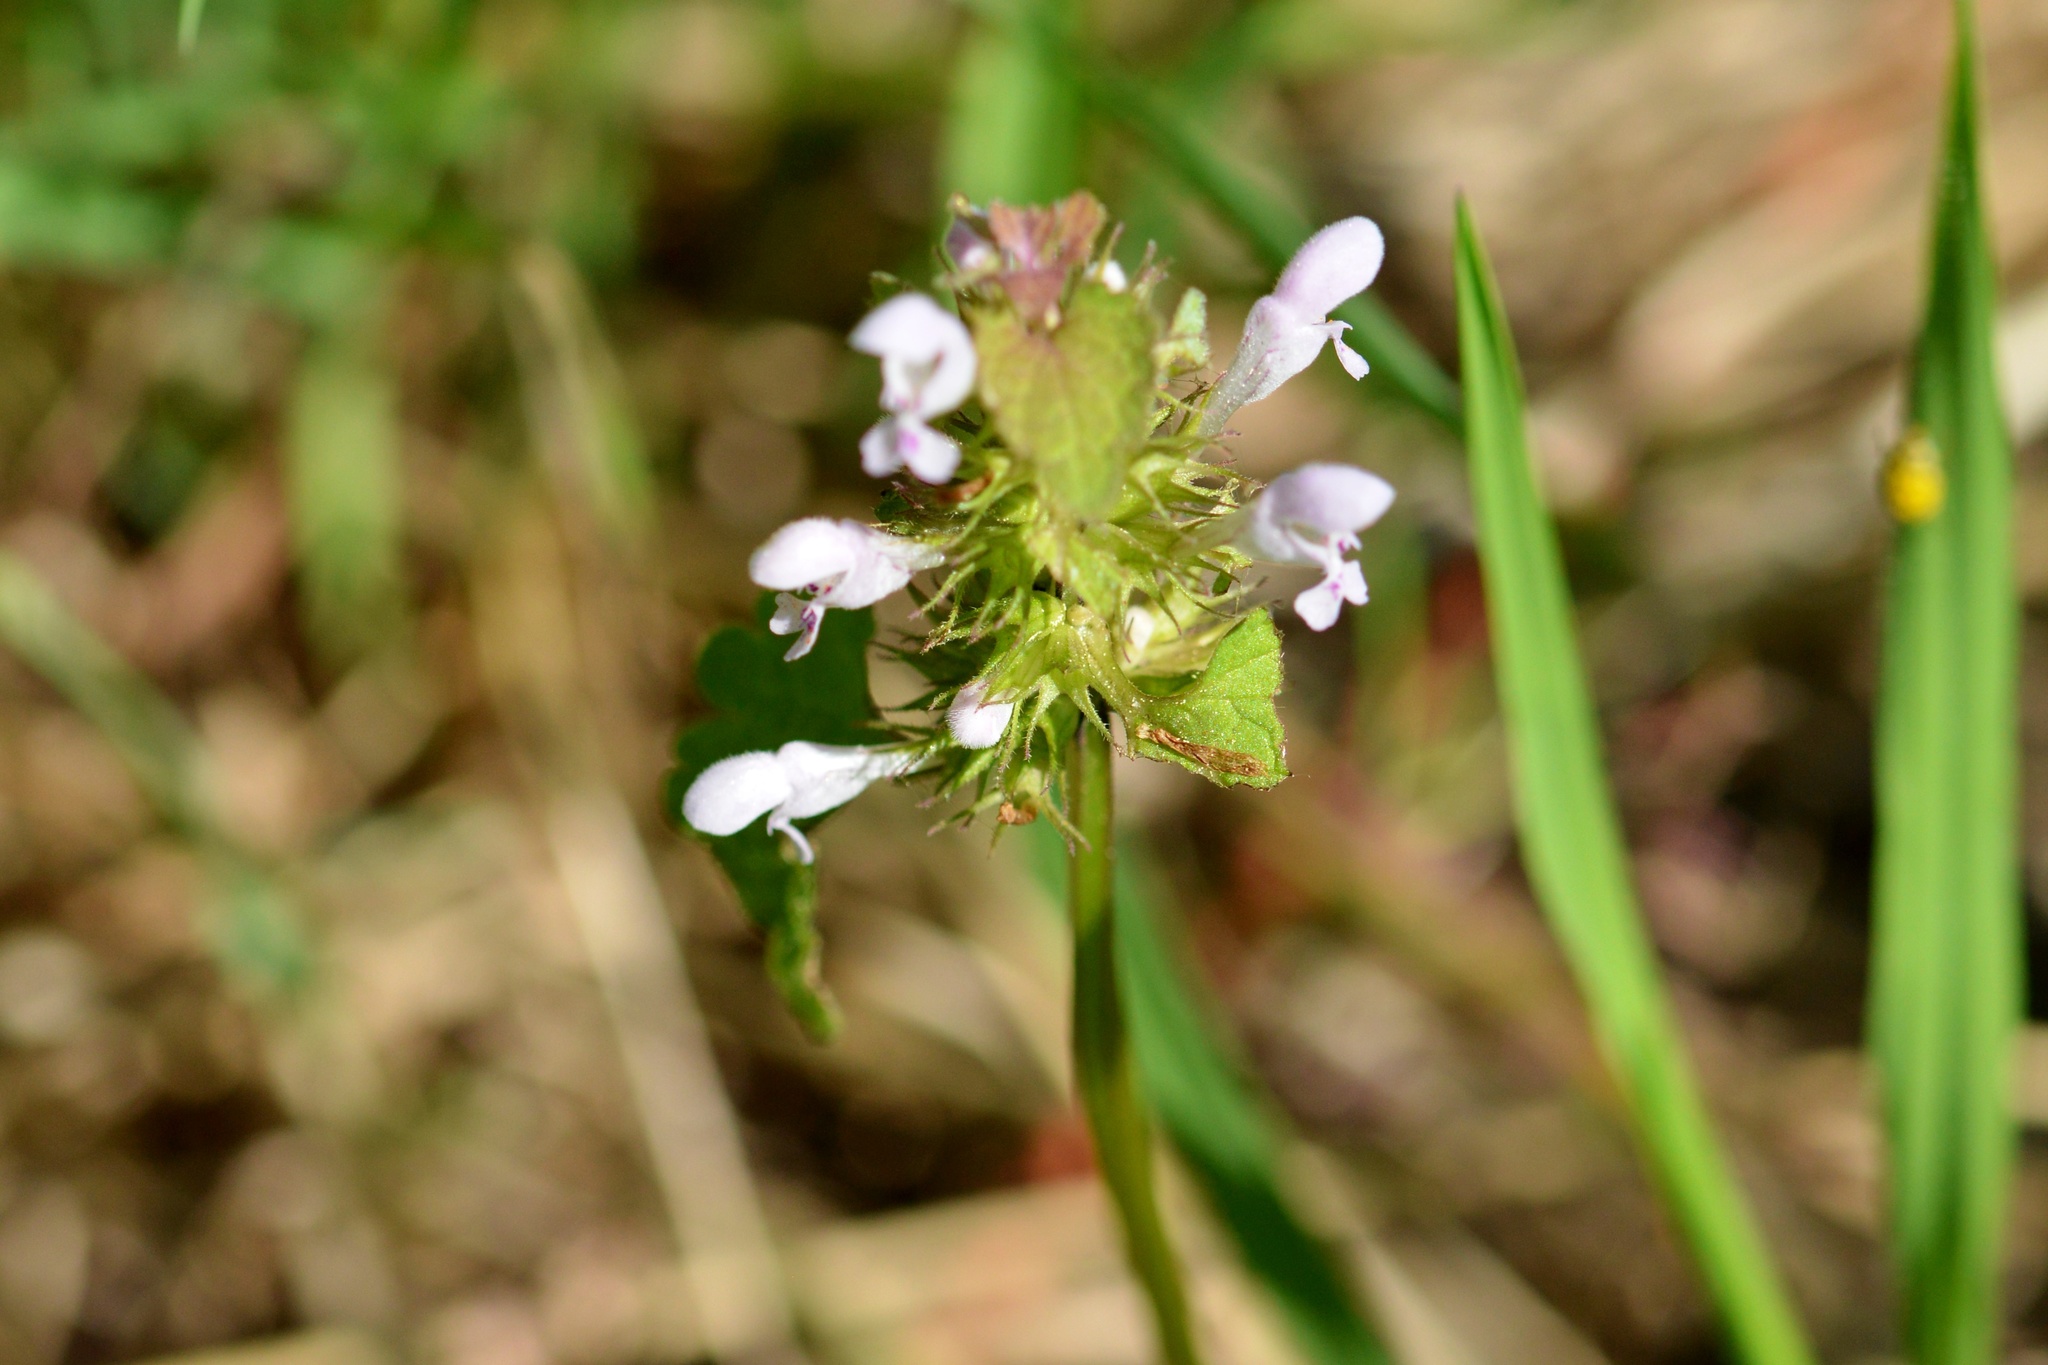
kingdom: Plantae
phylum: Tracheophyta
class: Magnoliopsida
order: Lamiales
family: Lamiaceae
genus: Lamium
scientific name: Lamium purpureum
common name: Red dead-nettle
